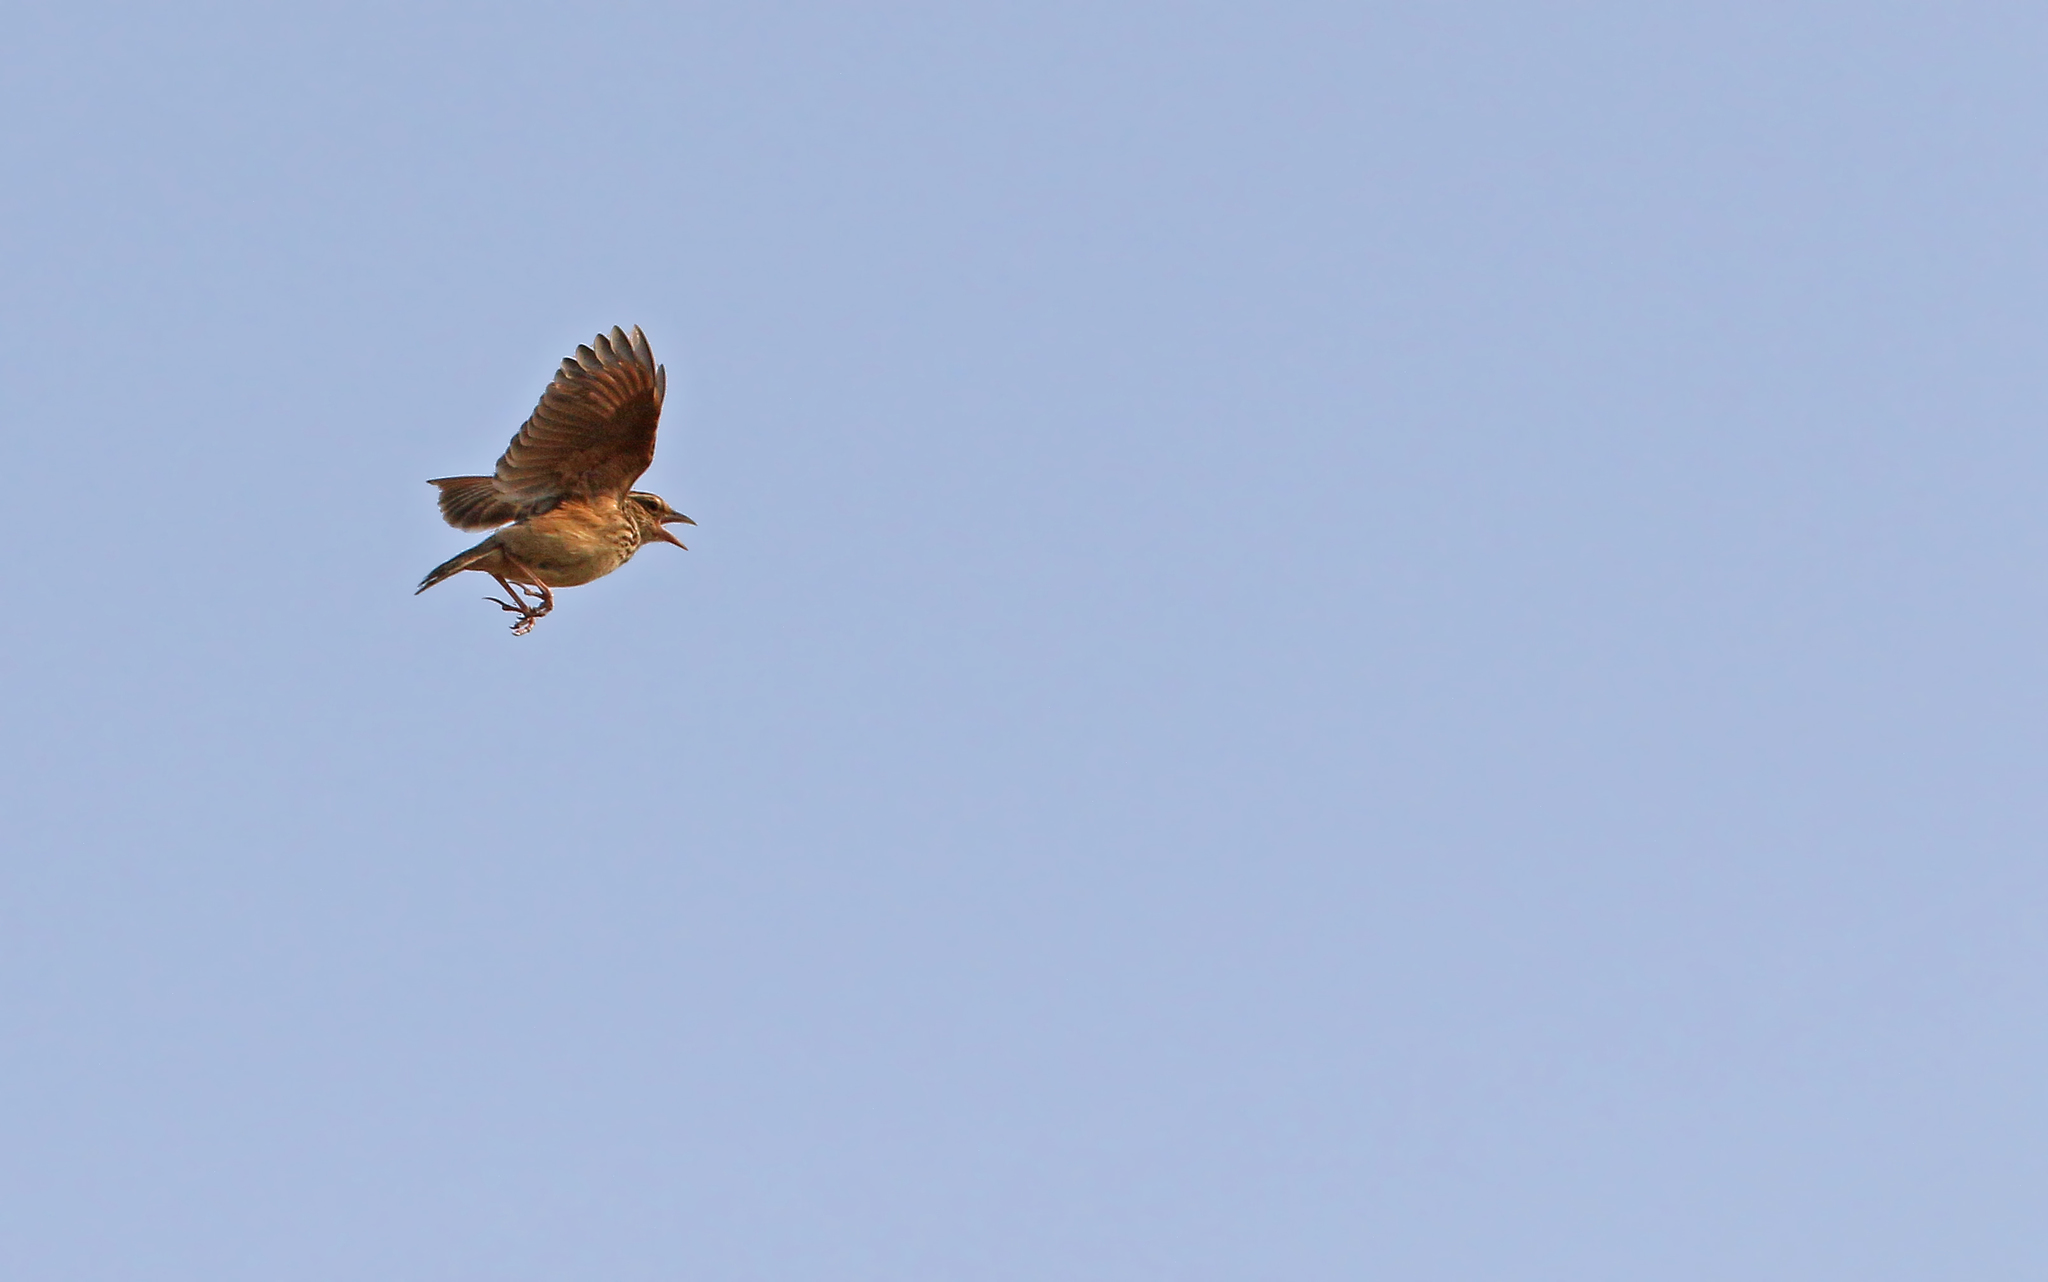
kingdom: Animalia
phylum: Chordata
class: Aves
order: Passeriformes
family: Alaudidae
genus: Mirafra
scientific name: Mirafra erythrocephala
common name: Indochinese bushlark
